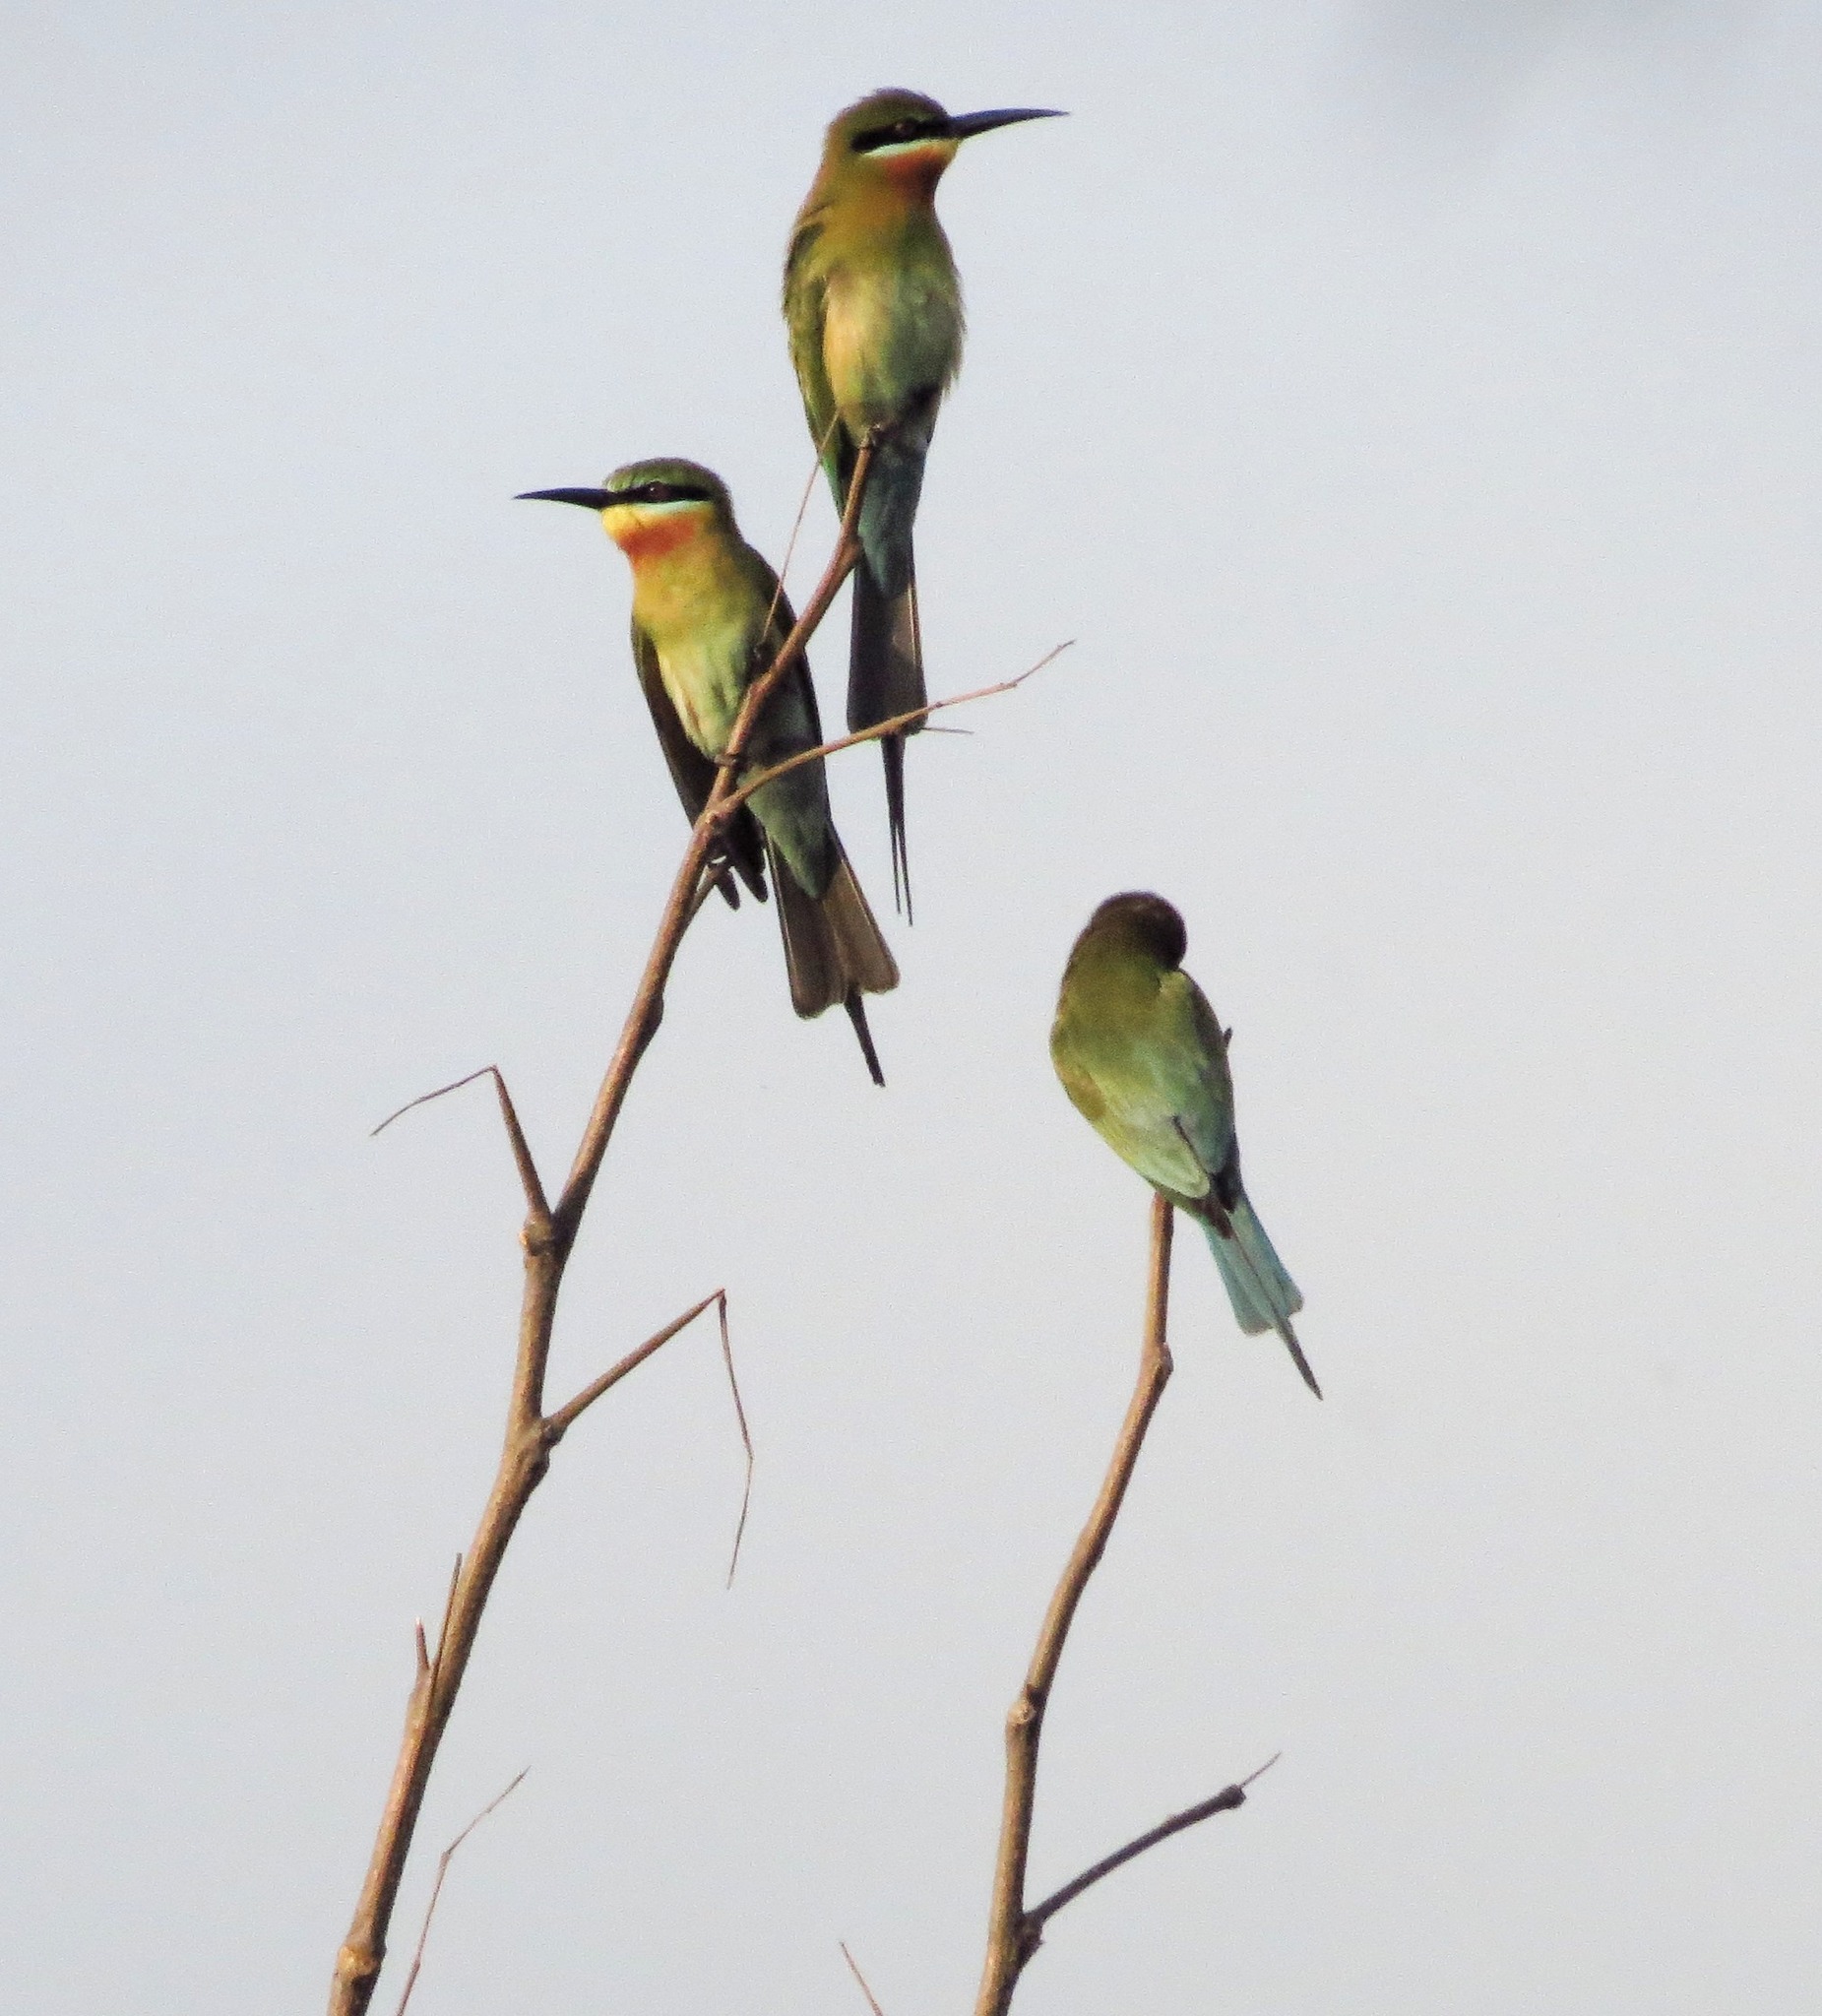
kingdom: Animalia
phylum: Chordata
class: Aves
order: Coraciiformes
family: Meropidae
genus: Merops
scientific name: Merops philippinus
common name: Blue-tailed bee-eater
